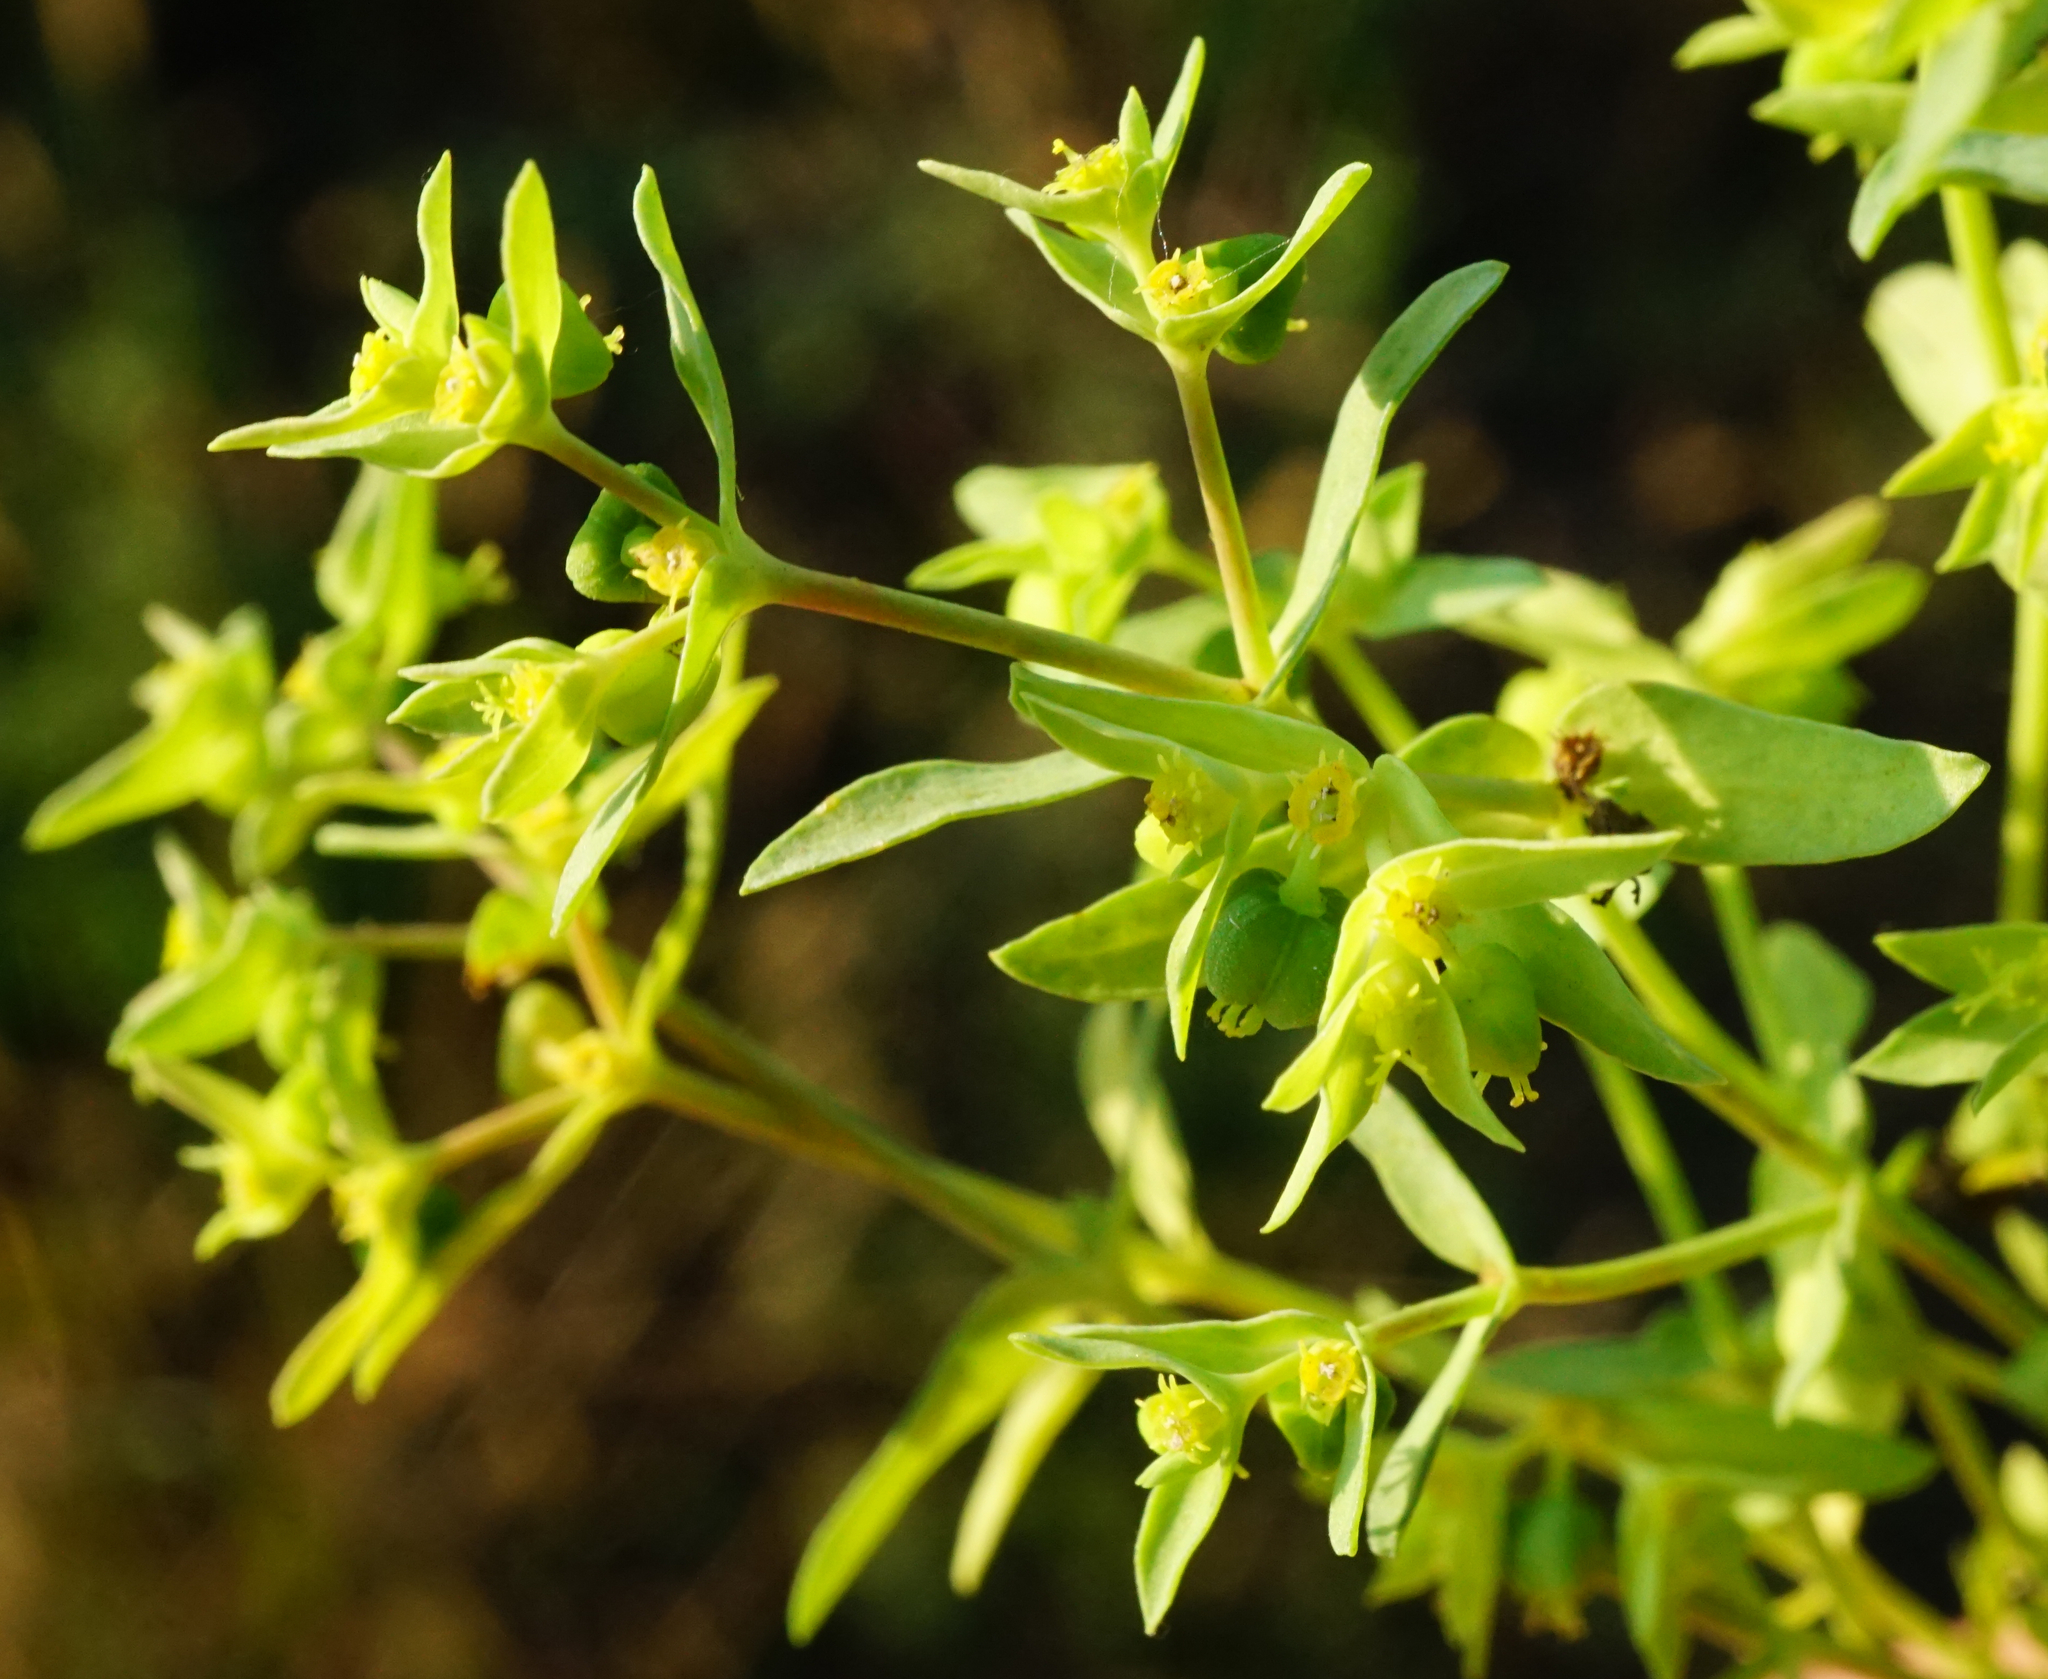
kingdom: Plantae
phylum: Tracheophyta
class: Magnoliopsida
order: Malpighiales
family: Euphorbiaceae
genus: Euphorbia
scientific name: Euphorbia exigua
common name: Dwarf spurge
